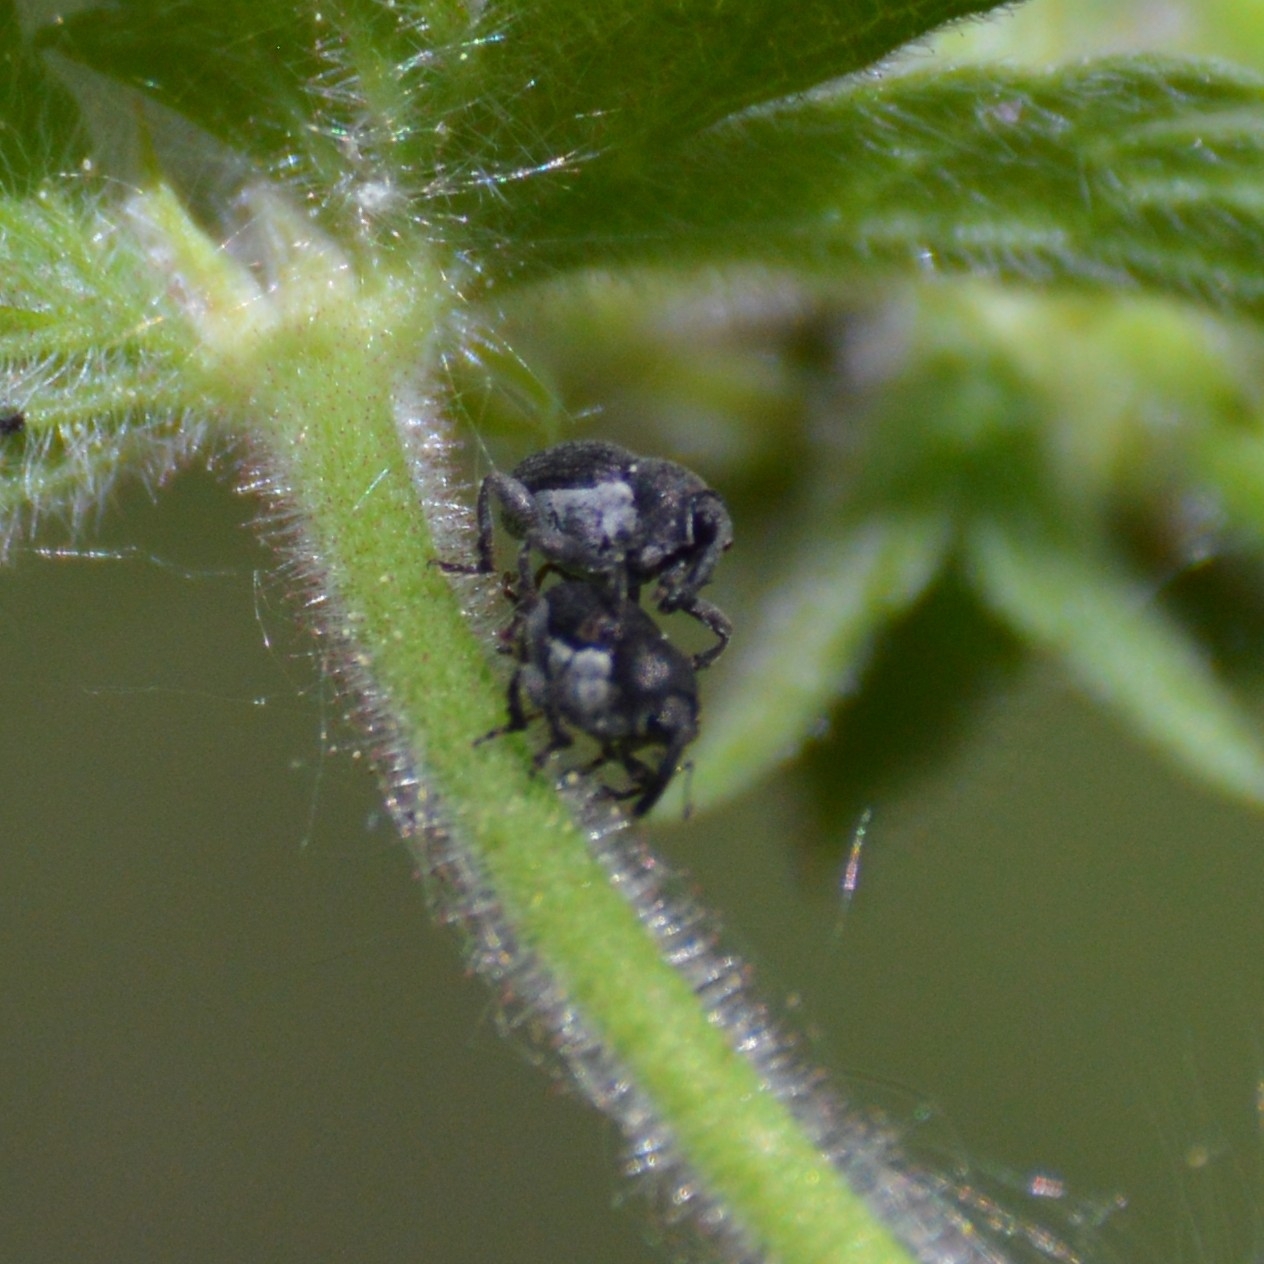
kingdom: Animalia
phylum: Arthropoda
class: Insecta
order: Coleoptera
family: Curculionidae
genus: Zacladus
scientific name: Zacladus geranii
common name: Meadow cranesbill weevil
